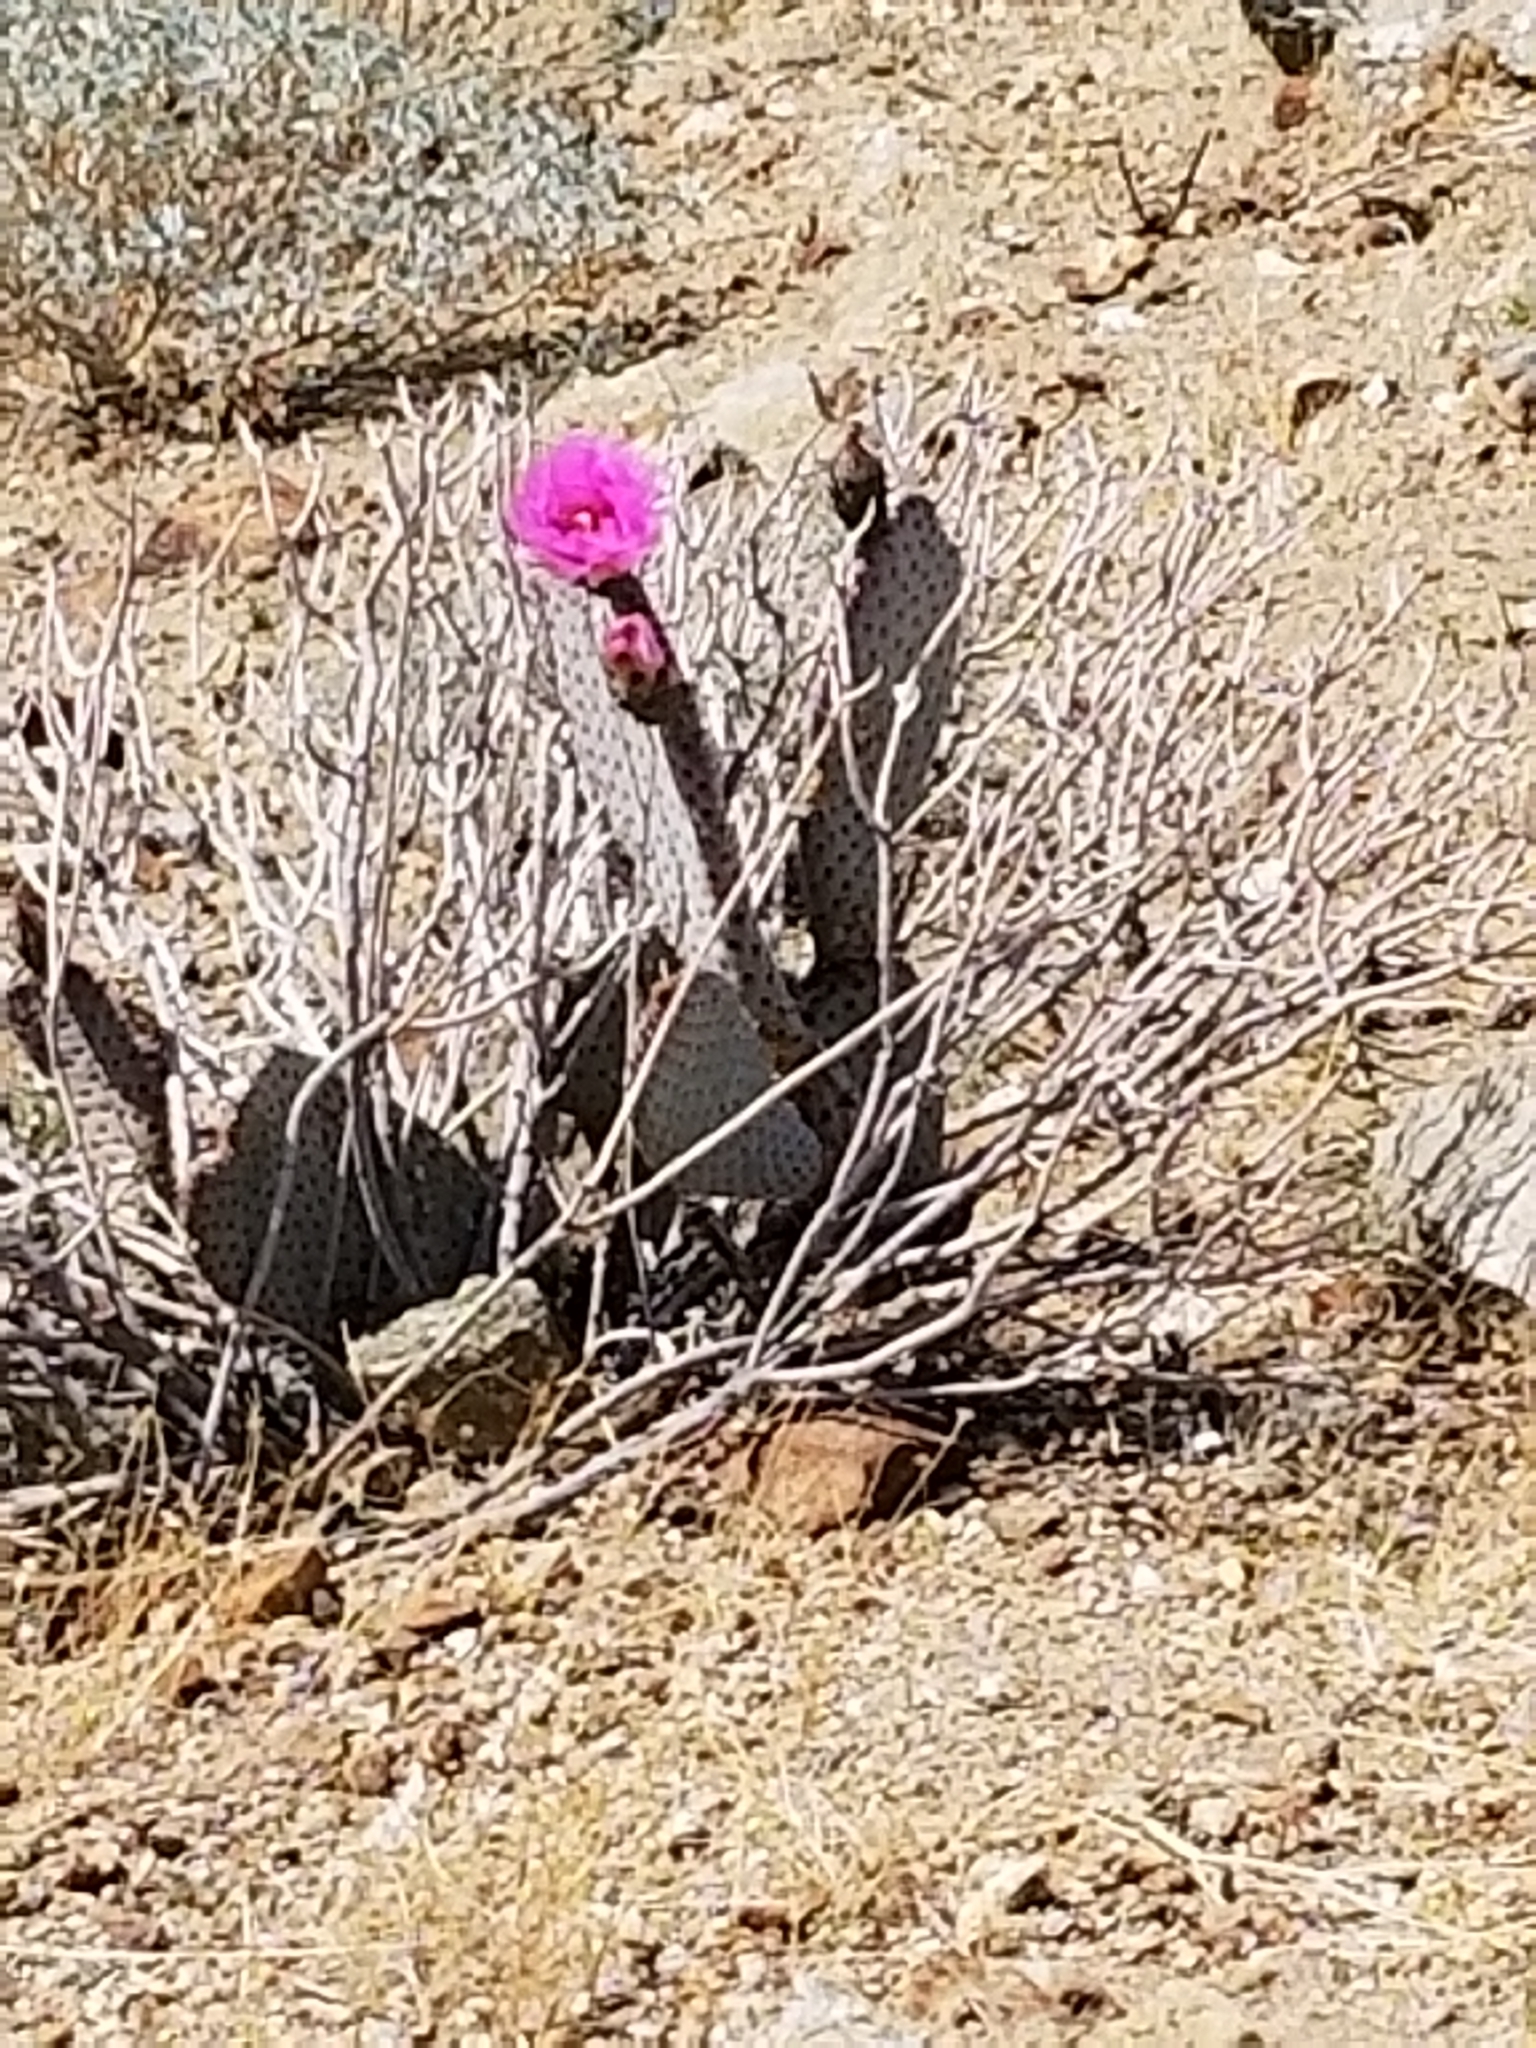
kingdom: Plantae
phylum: Tracheophyta
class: Magnoliopsida
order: Caryophyllales
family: Cactaceae
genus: Opuntia
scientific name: Opuntia basilaris
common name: Beavertail prickly-pear
